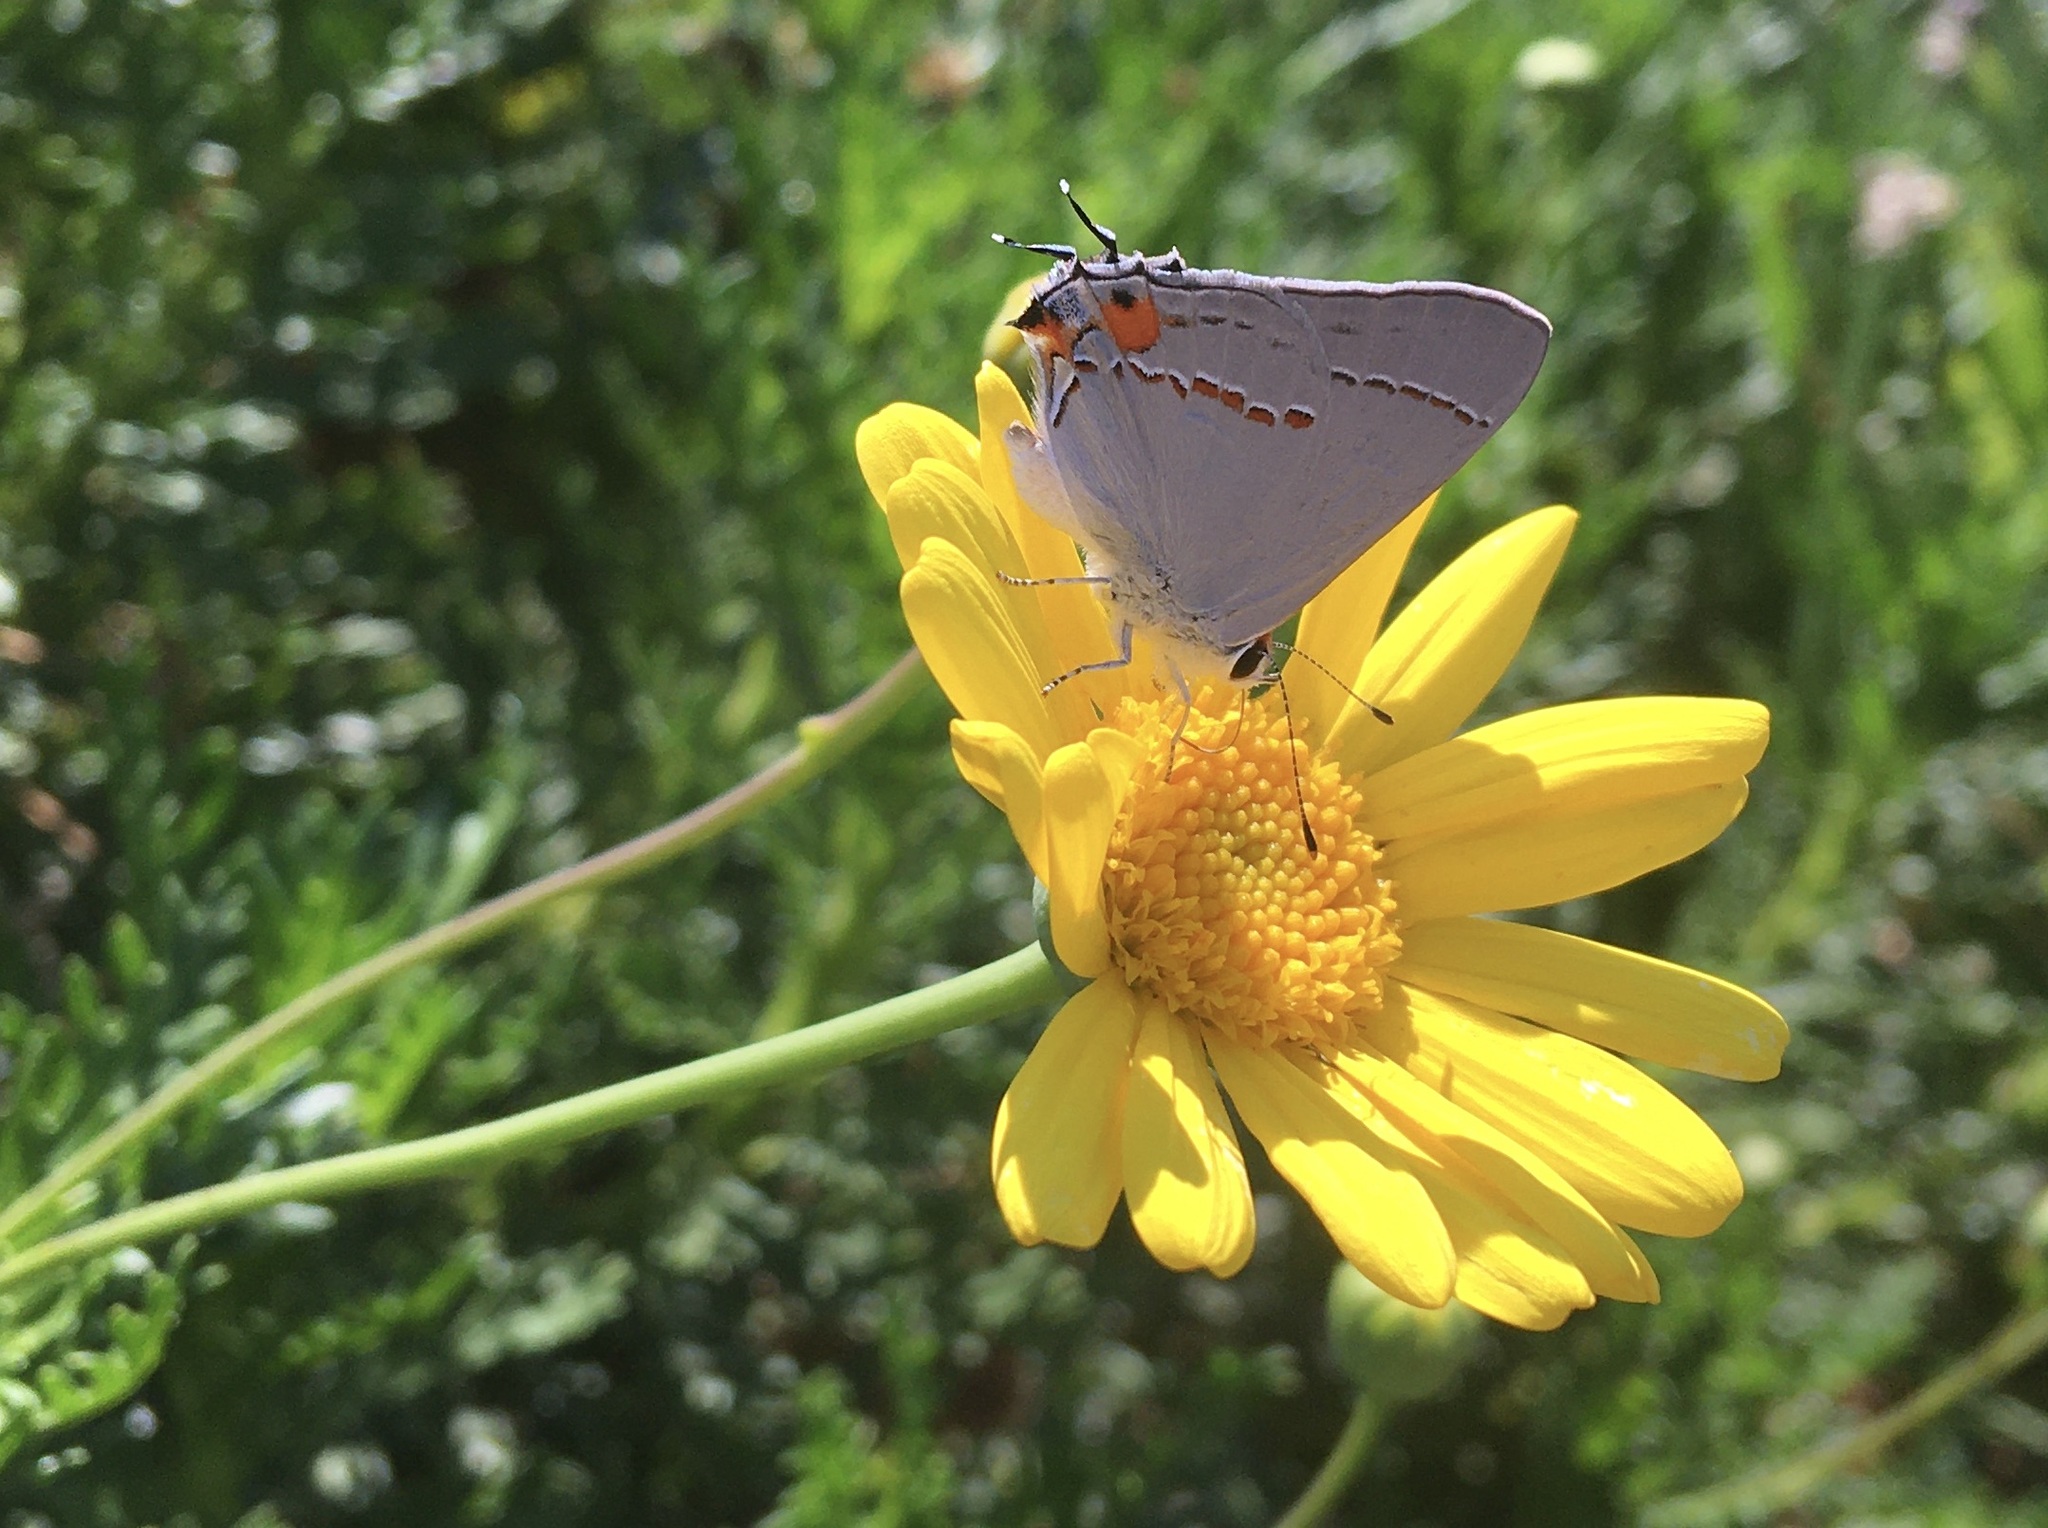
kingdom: Animalia
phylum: Arthropoda
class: Insecta
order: Lepidoptera
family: Lycaenidae
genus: Strymon
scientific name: Strymon melinus
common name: Gray hairstreak
